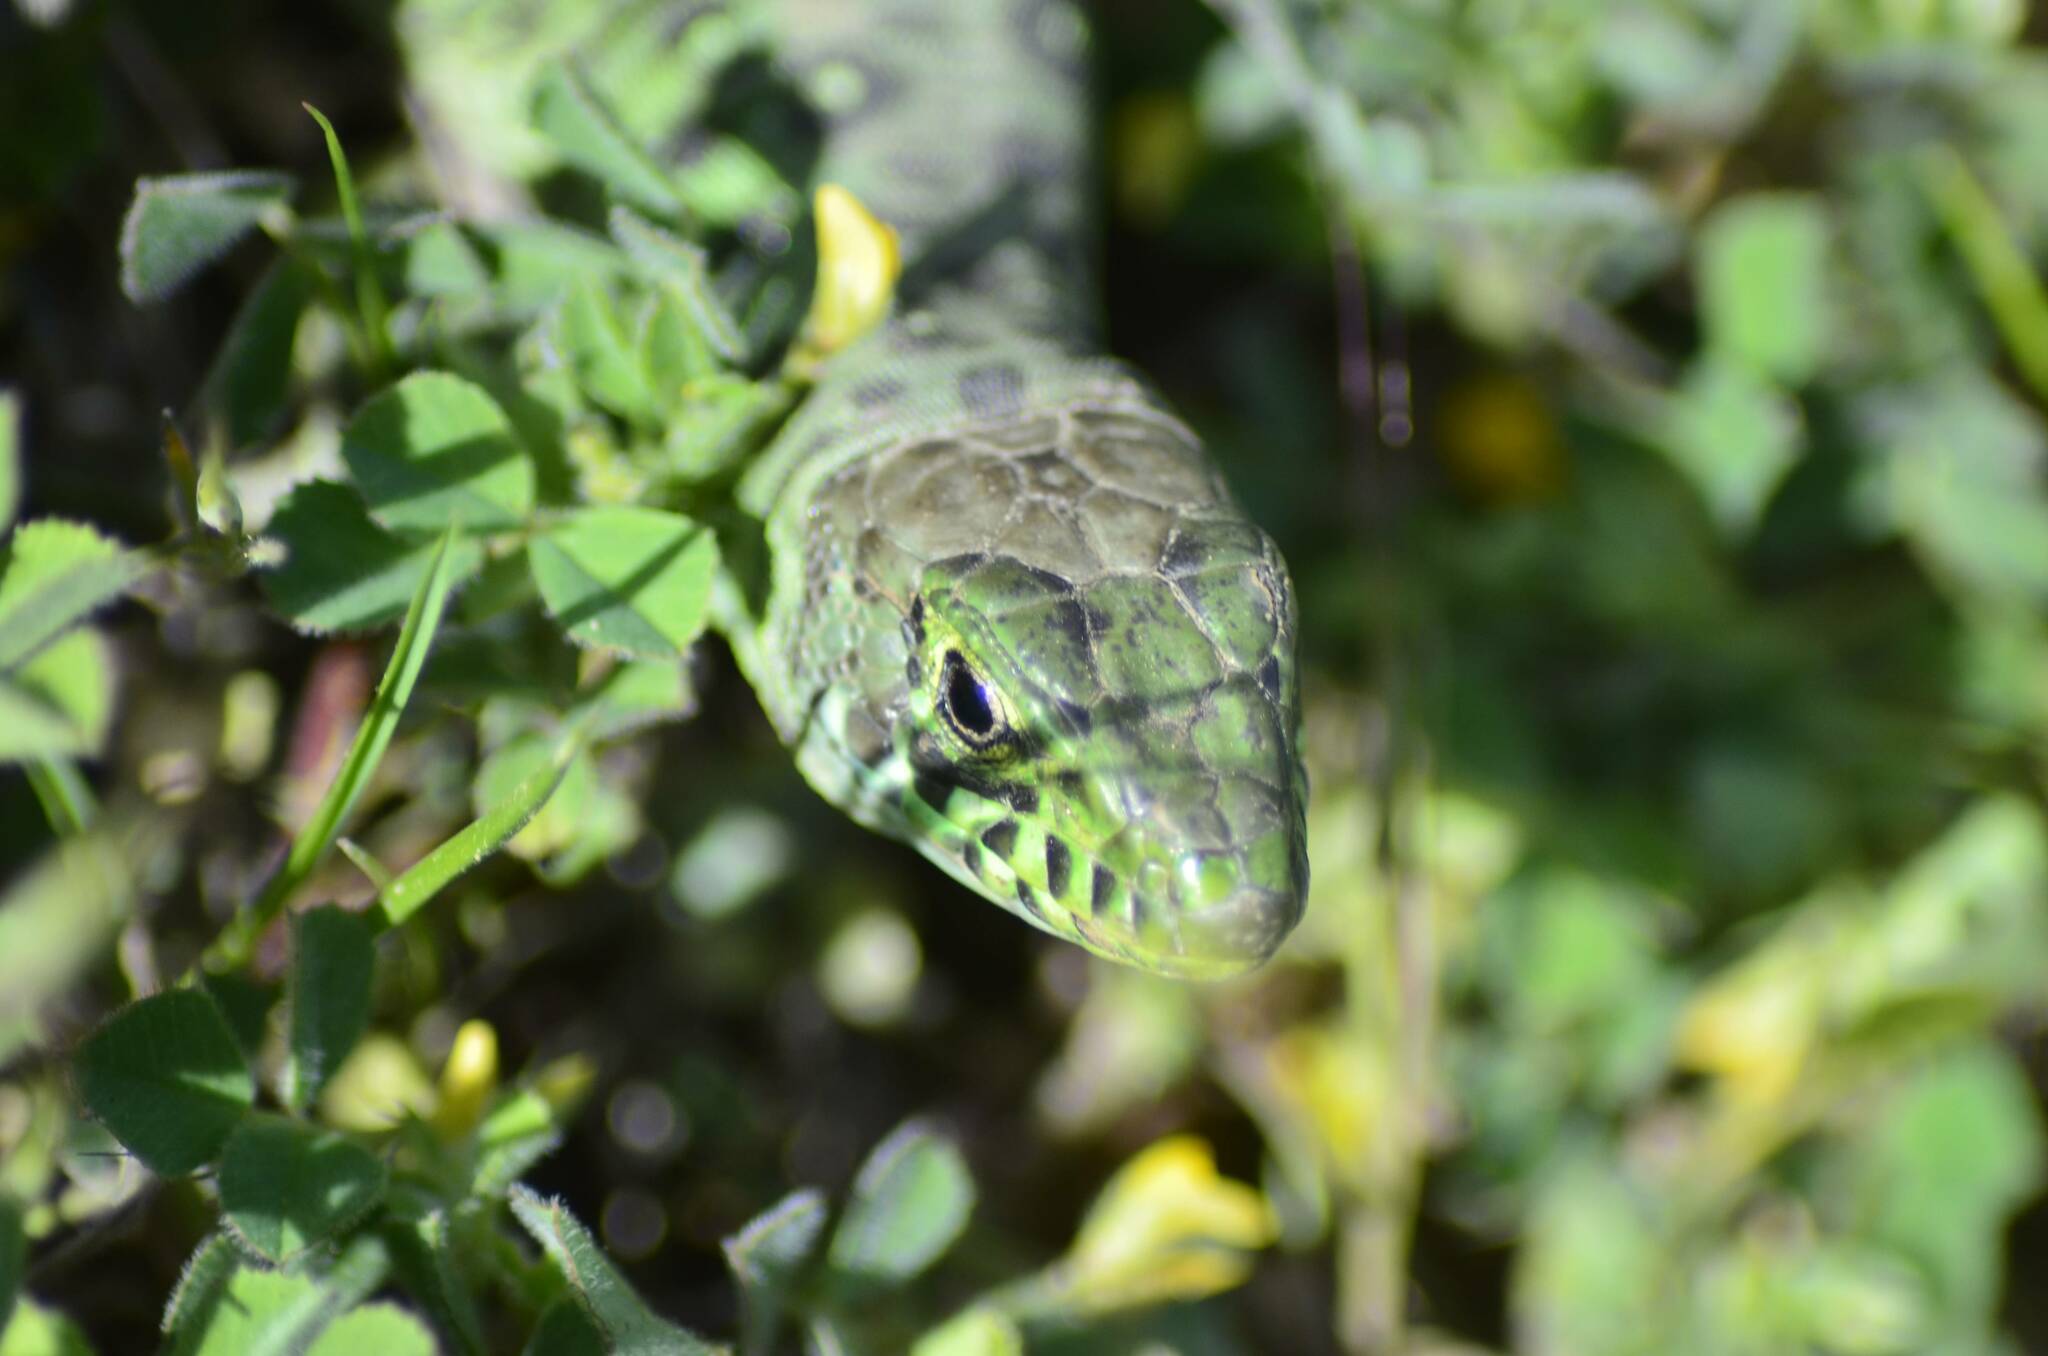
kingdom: Animalia
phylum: Chordata
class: Squamata
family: Lacertidae
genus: Timon
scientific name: Timon pater
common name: North african ocellated lizard
